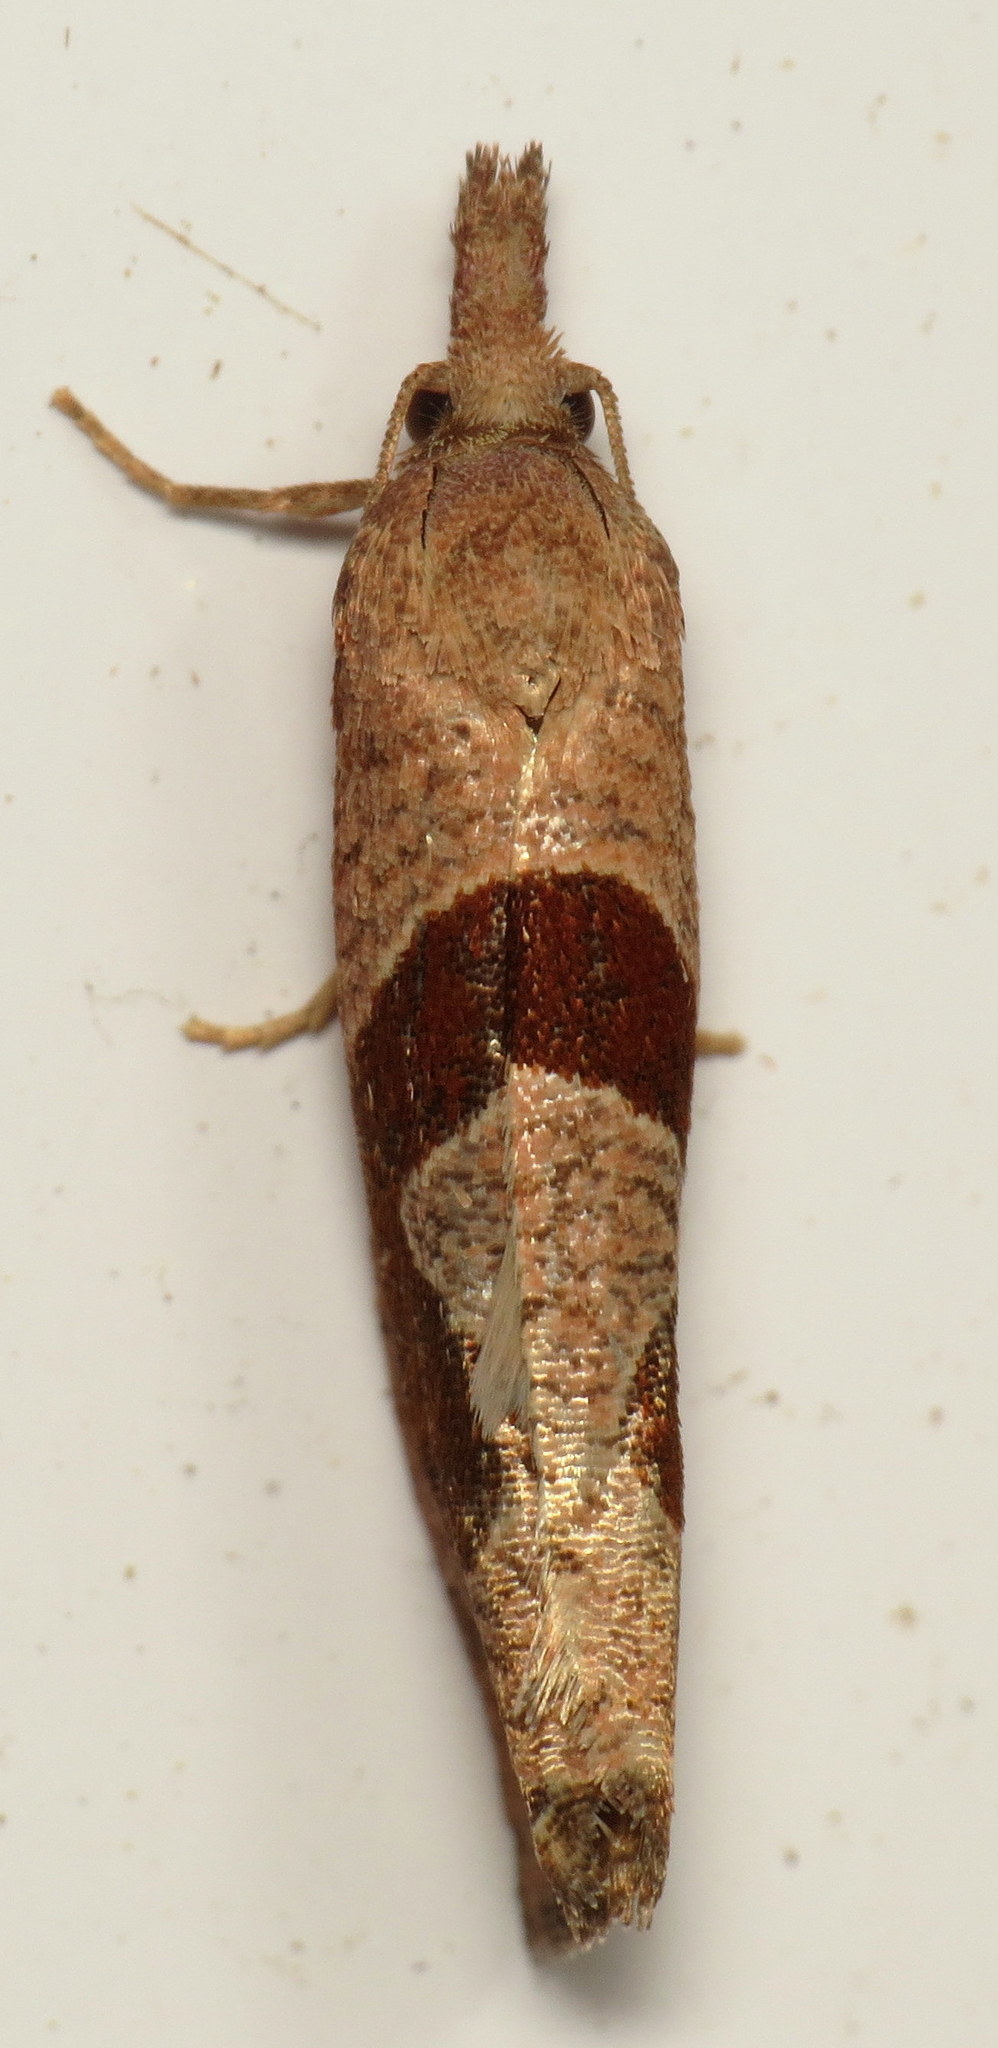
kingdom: Animalia
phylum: Arthropoda
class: Insecta
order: Lepidoptera
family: Tortricidae
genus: Pelochrista
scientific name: Pelochrista similiana
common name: Similar eucosma
